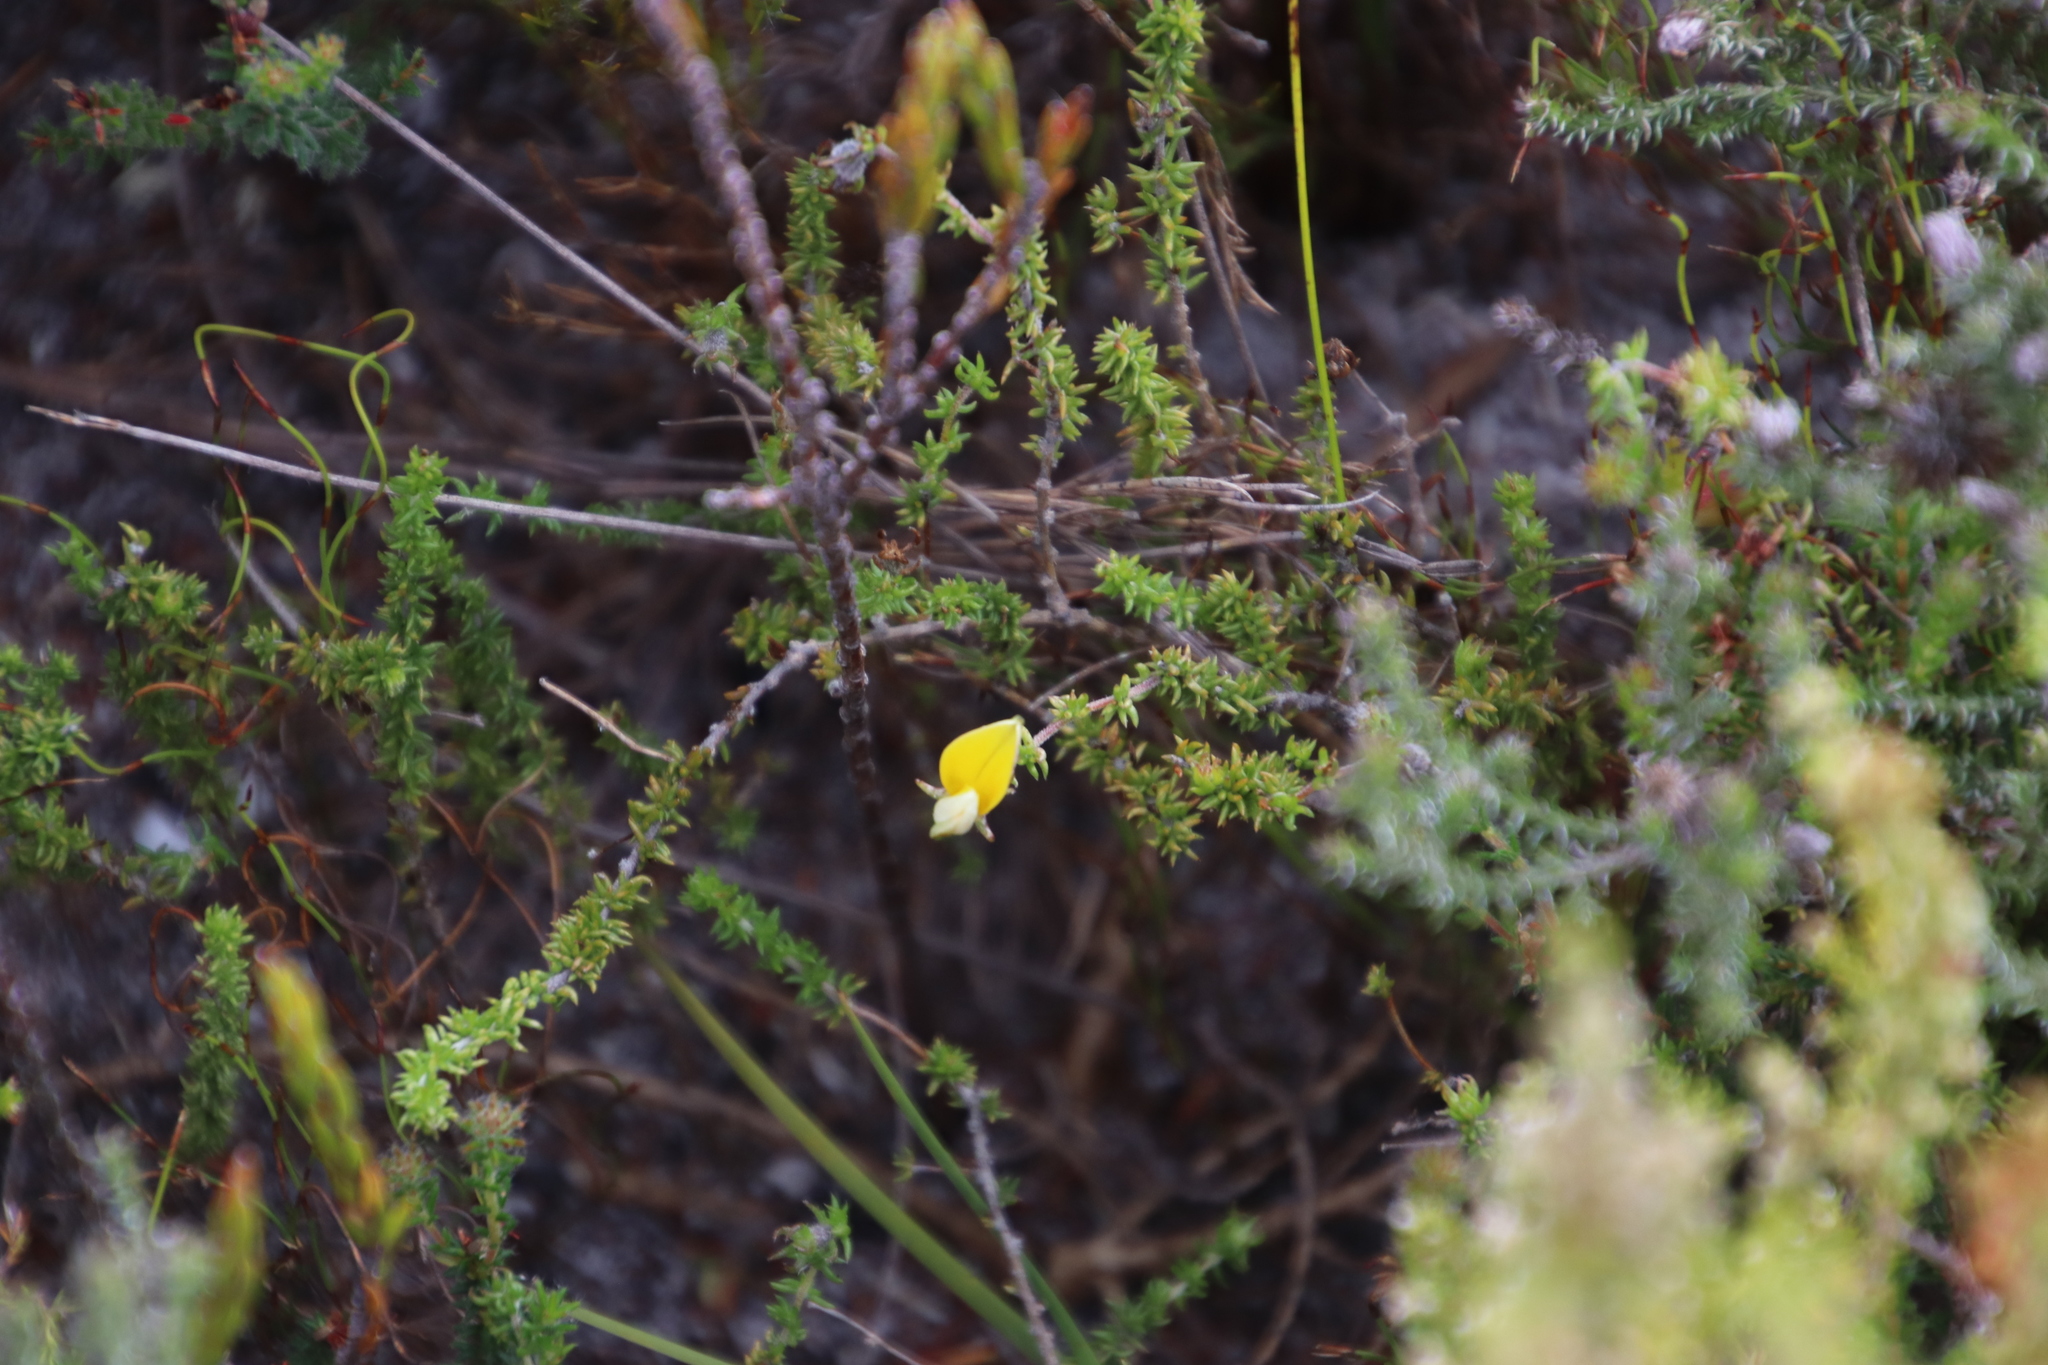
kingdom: Plantae
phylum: Tracheophyta
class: Magnoliopsida
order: Fabales
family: Fabaceae
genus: Aspalathus
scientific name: Aspalathus retroflexa
